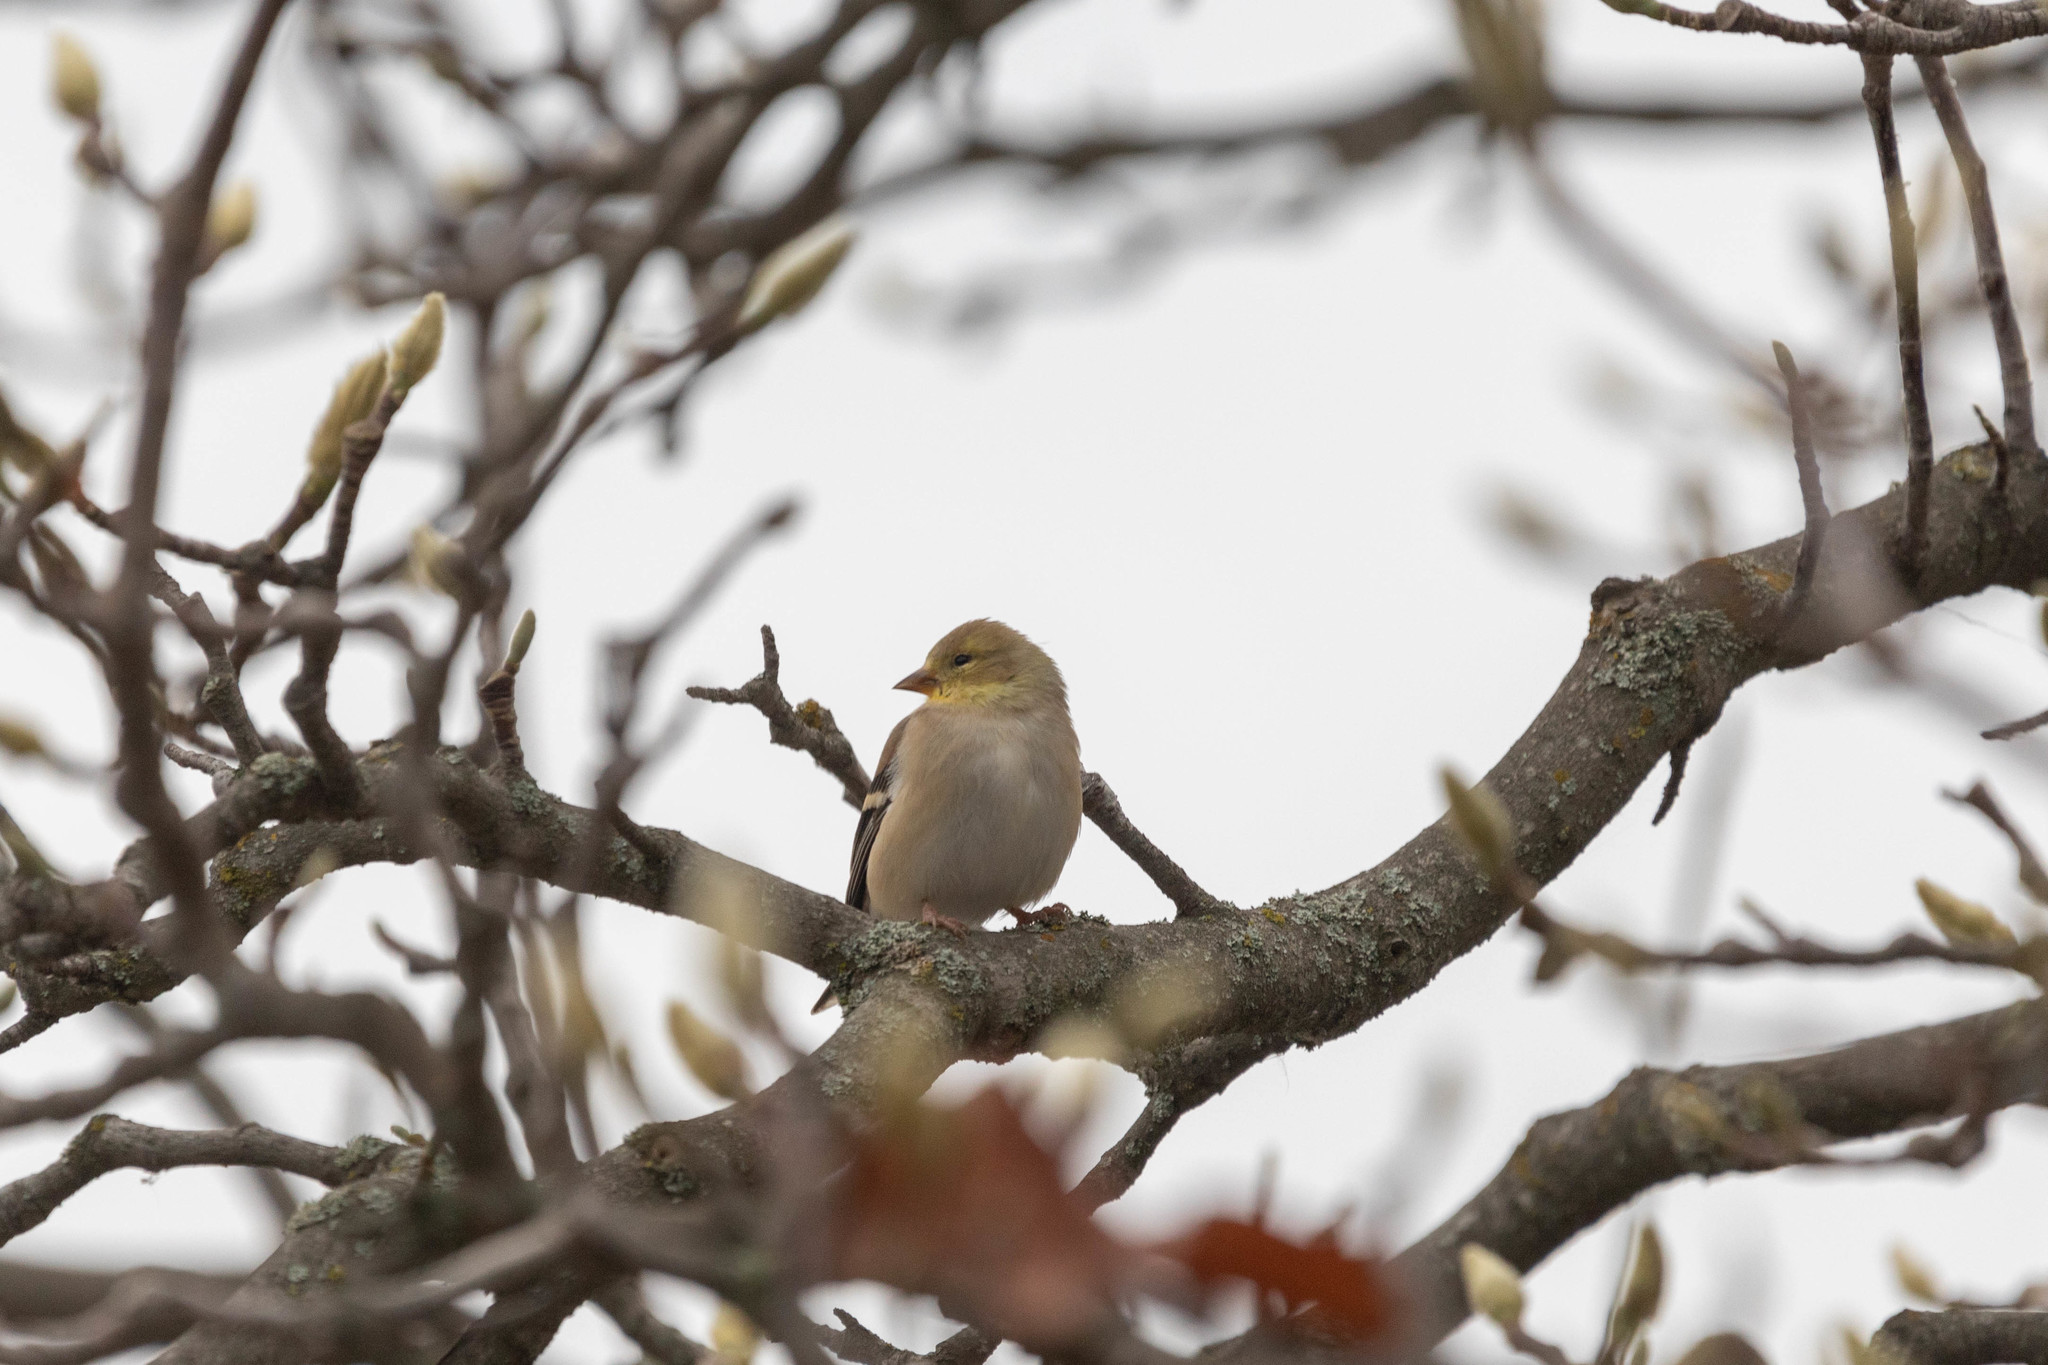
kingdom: Animalia
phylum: Chordata
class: Aves
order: Passeriformes
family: Fringillidae
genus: Spinus
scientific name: Spinus tristis
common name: American goldfinch
